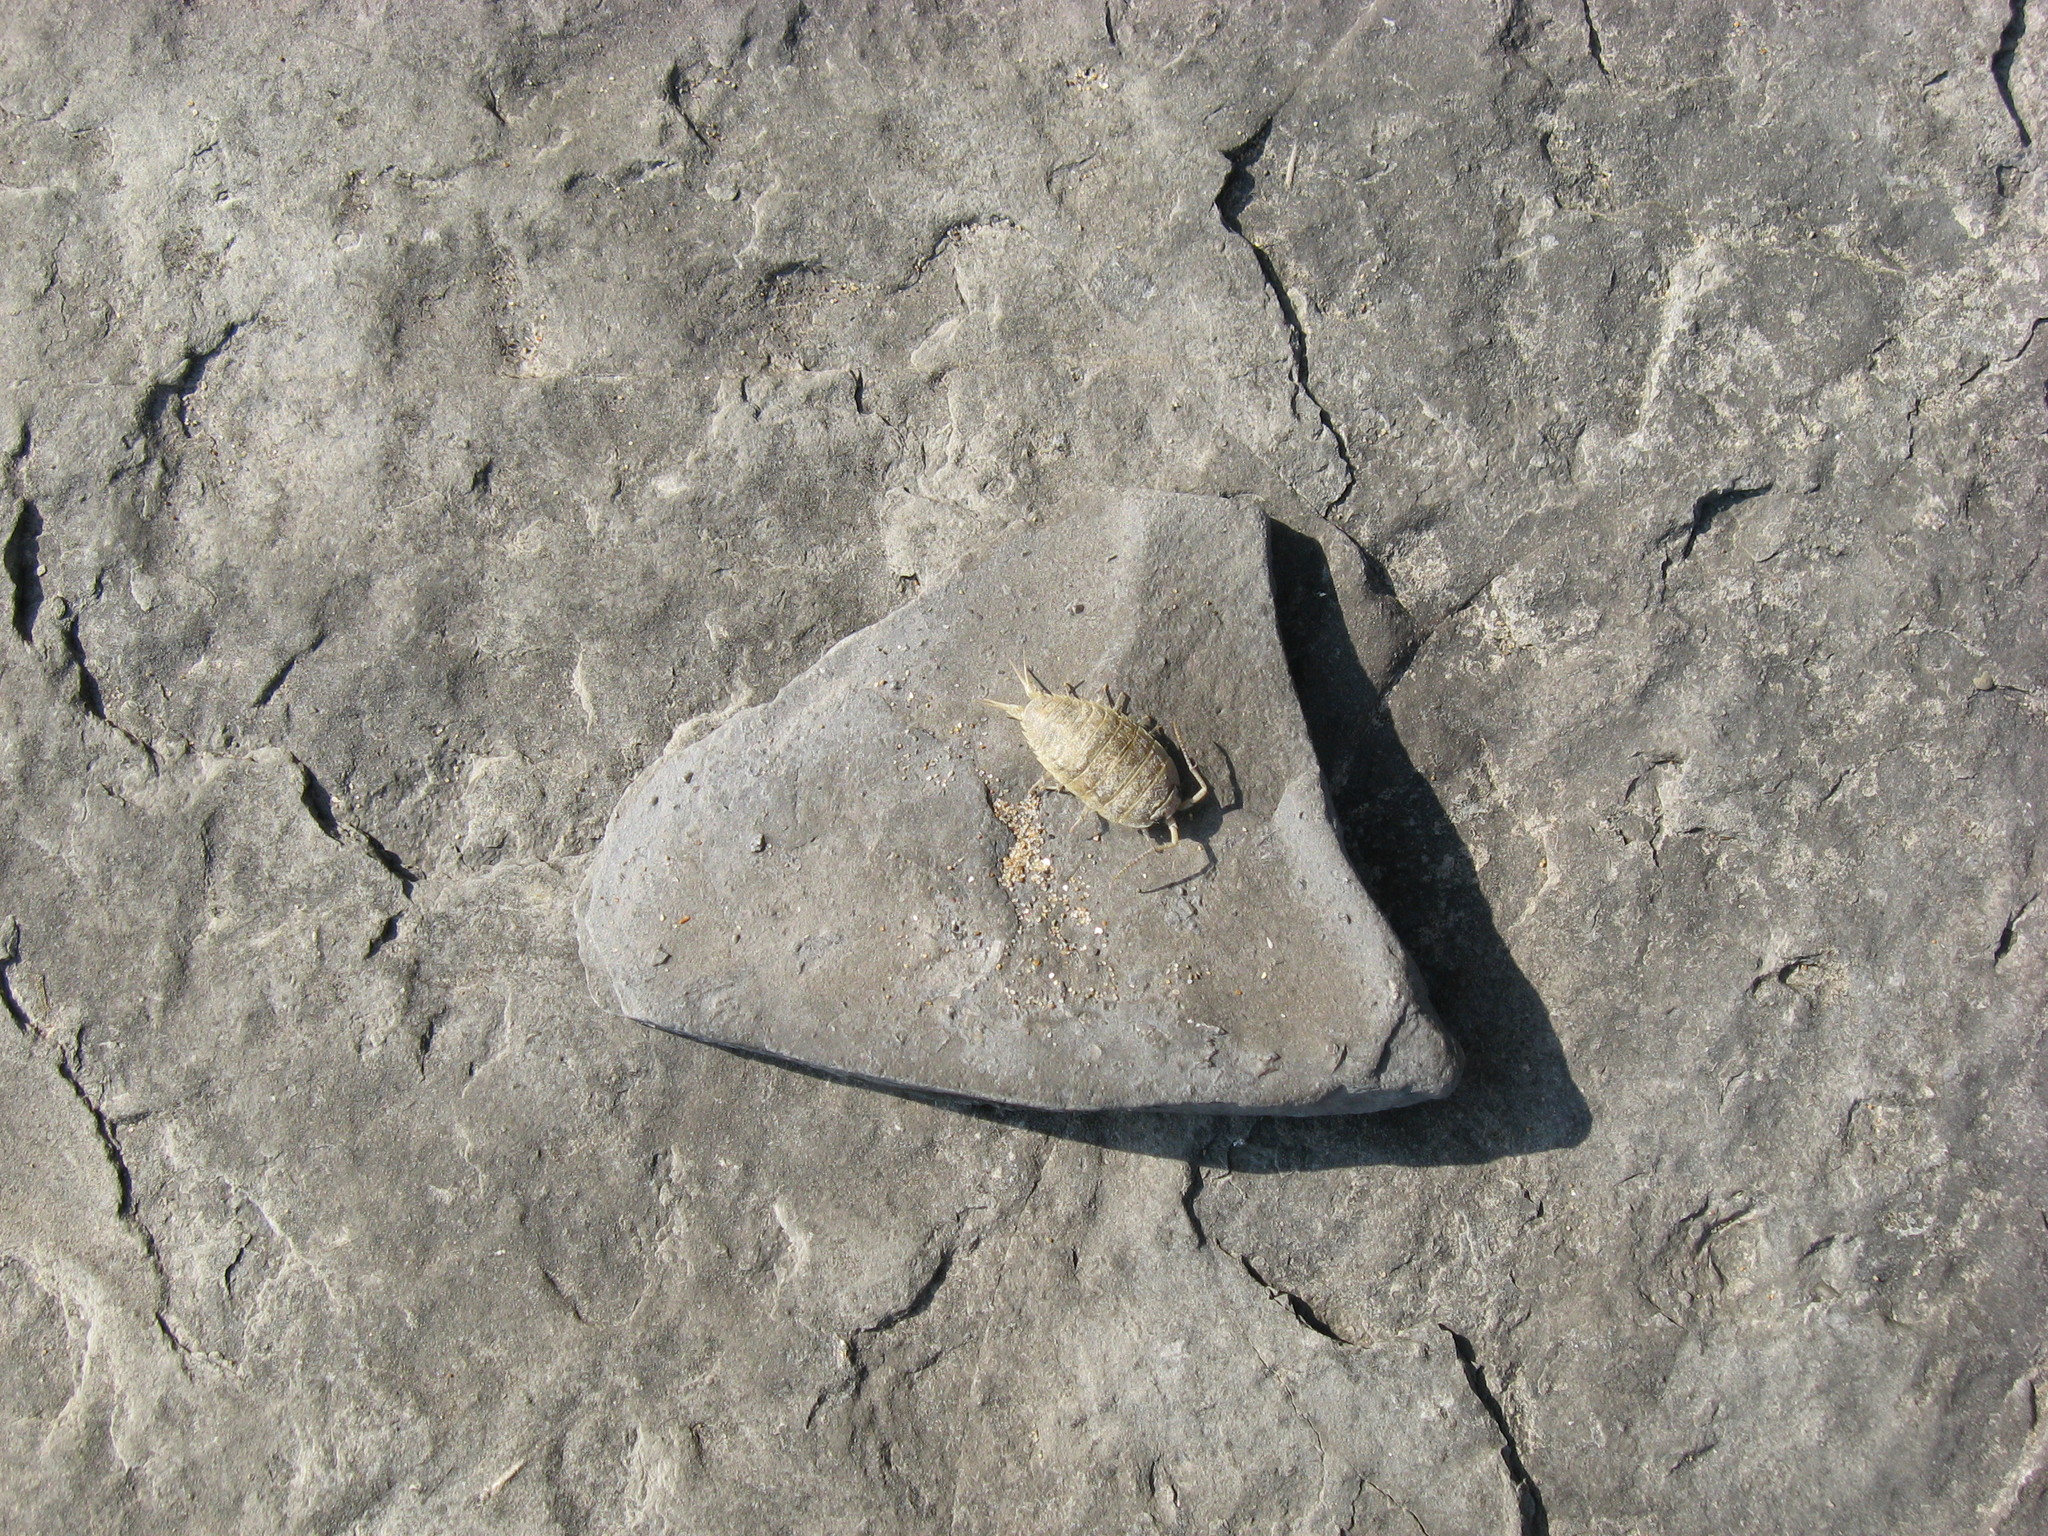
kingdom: Animalia
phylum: Arthropoda
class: Malacostraca
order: Isopoda
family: Ligiidae
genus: Ligia
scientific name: Ligia oceanica
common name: Sea slater
